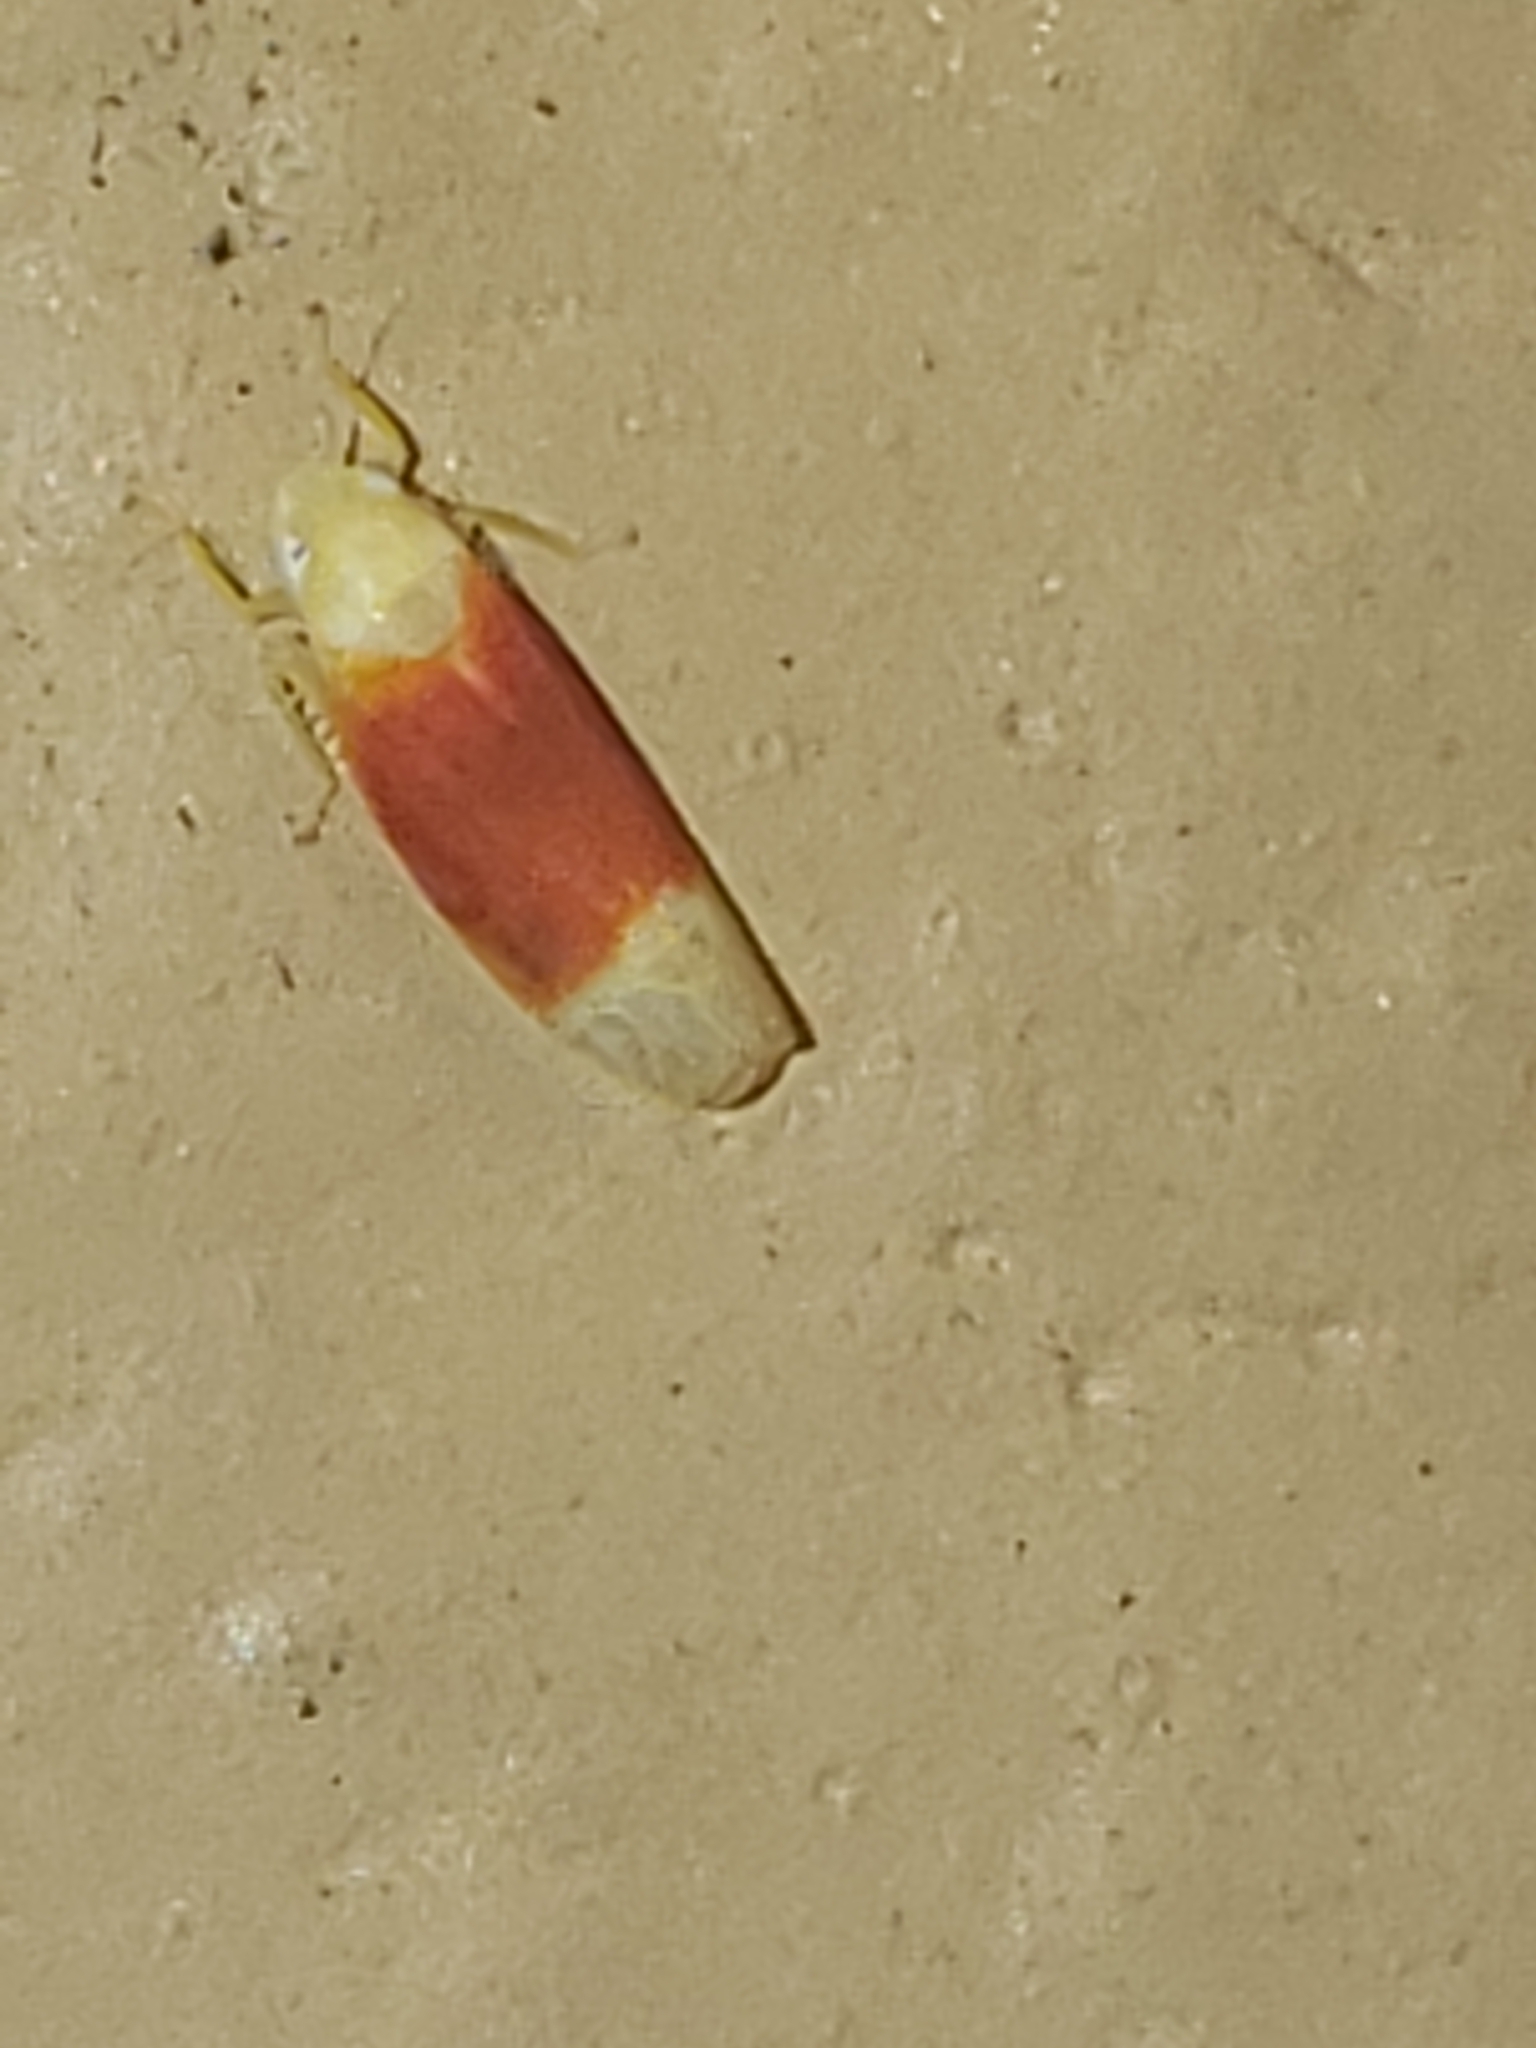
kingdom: Animalia
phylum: Arthropoda
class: Insecta
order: Hemiptera
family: Cicadellidae
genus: Ossiannilssonola
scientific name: Ossiannilssonola tunicarubra
